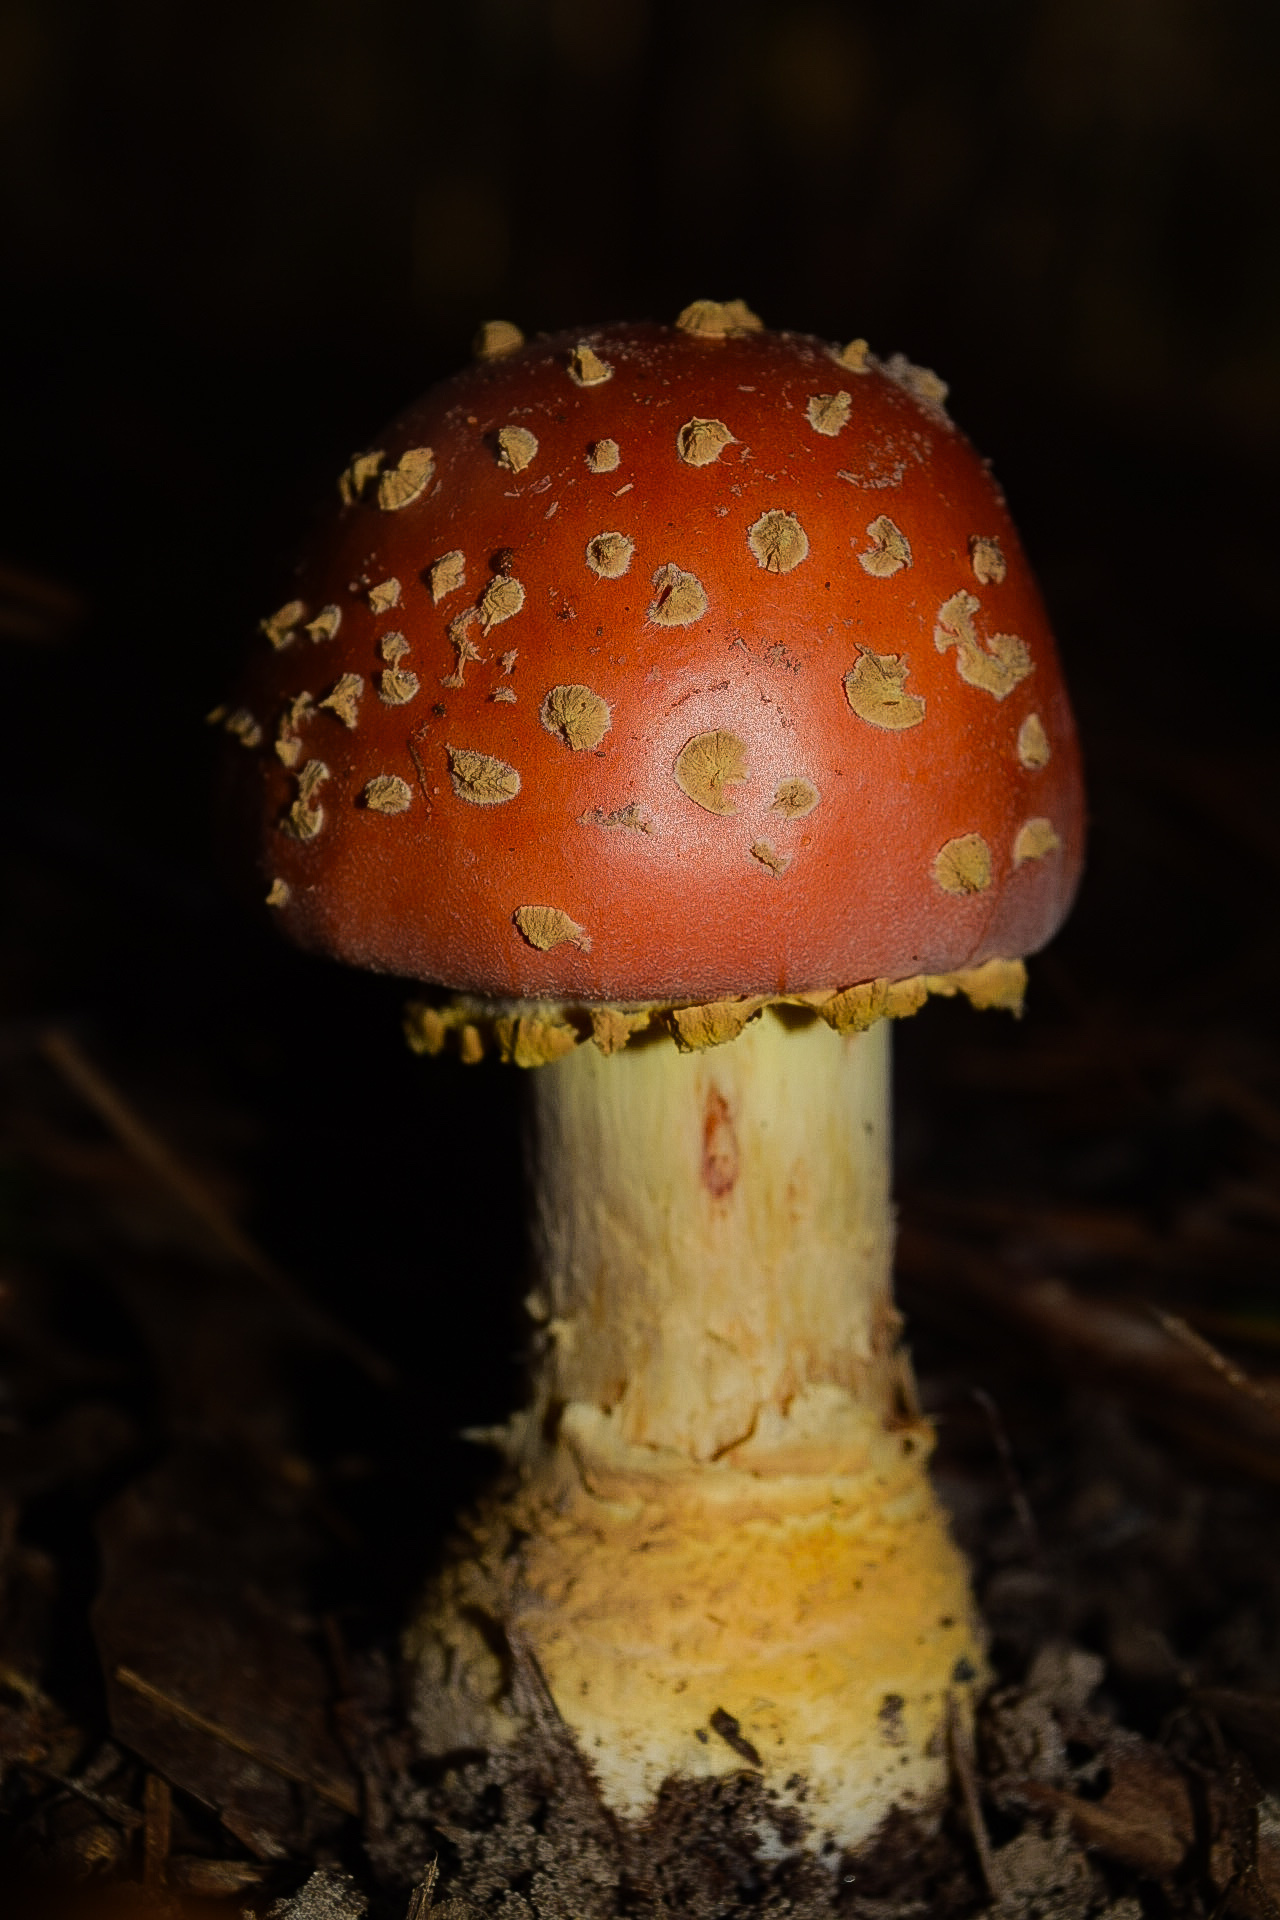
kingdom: Fungi
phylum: Basidiomycota
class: Agaricomycetes
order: Agaricales
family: Amanitaceae
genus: Amanita
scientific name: Amanita persicina
